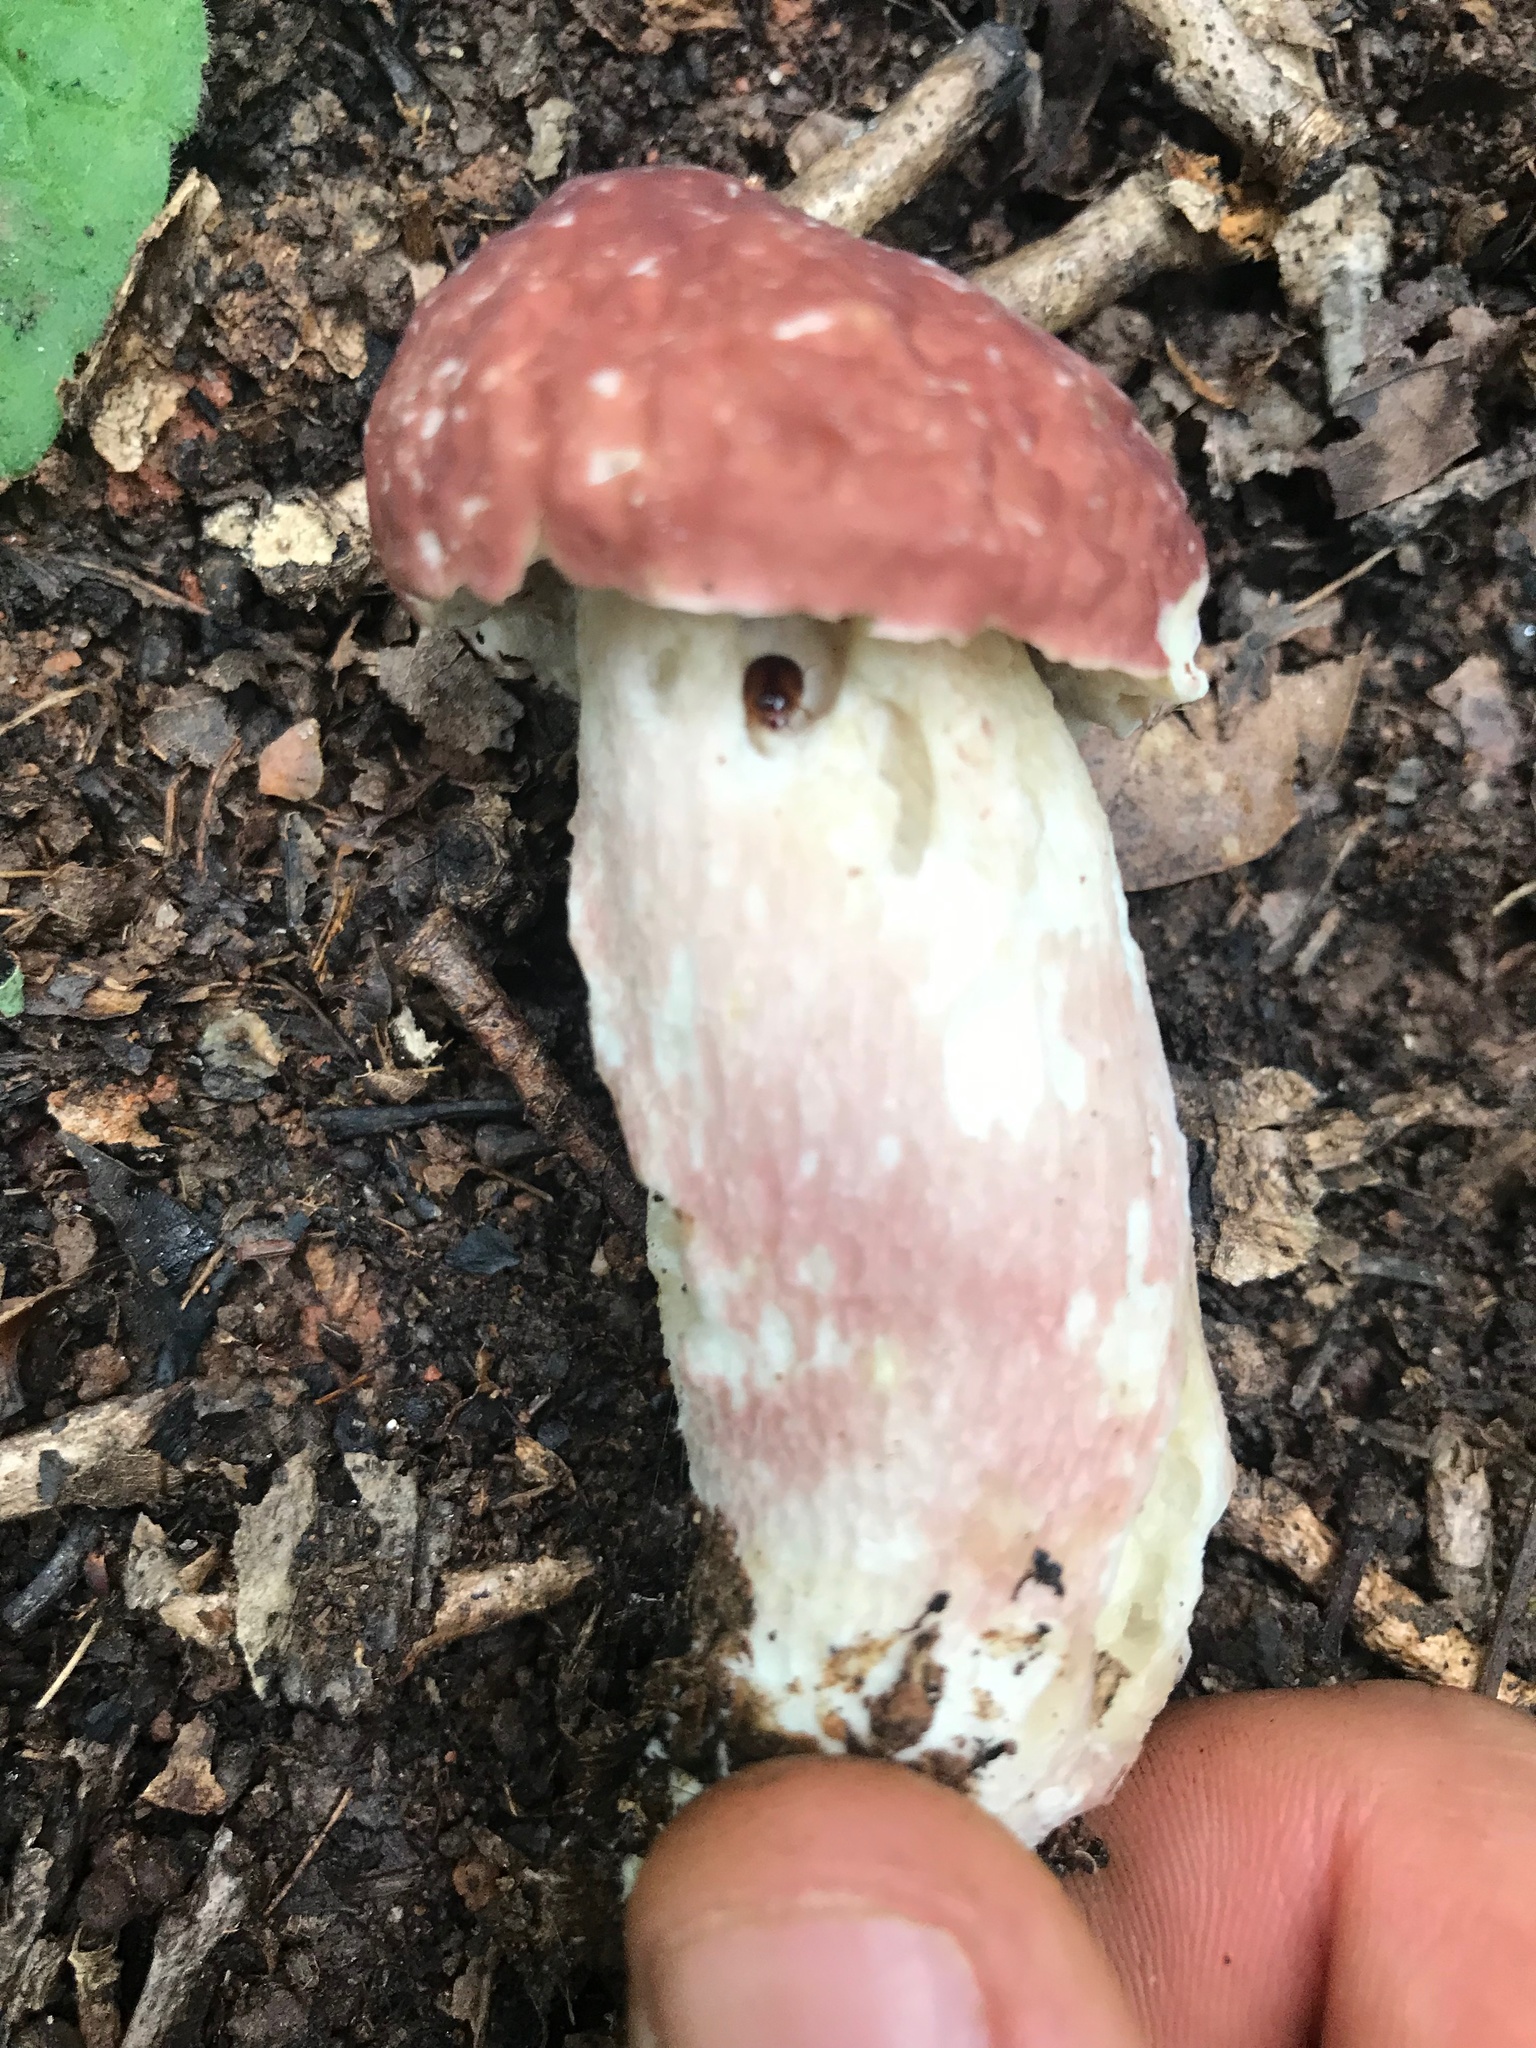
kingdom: Fungi
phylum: Basidiomycota
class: Agaricomycetes
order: Boletales
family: Boletaceae
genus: Xanthoconium
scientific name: Xanthoconium separans
